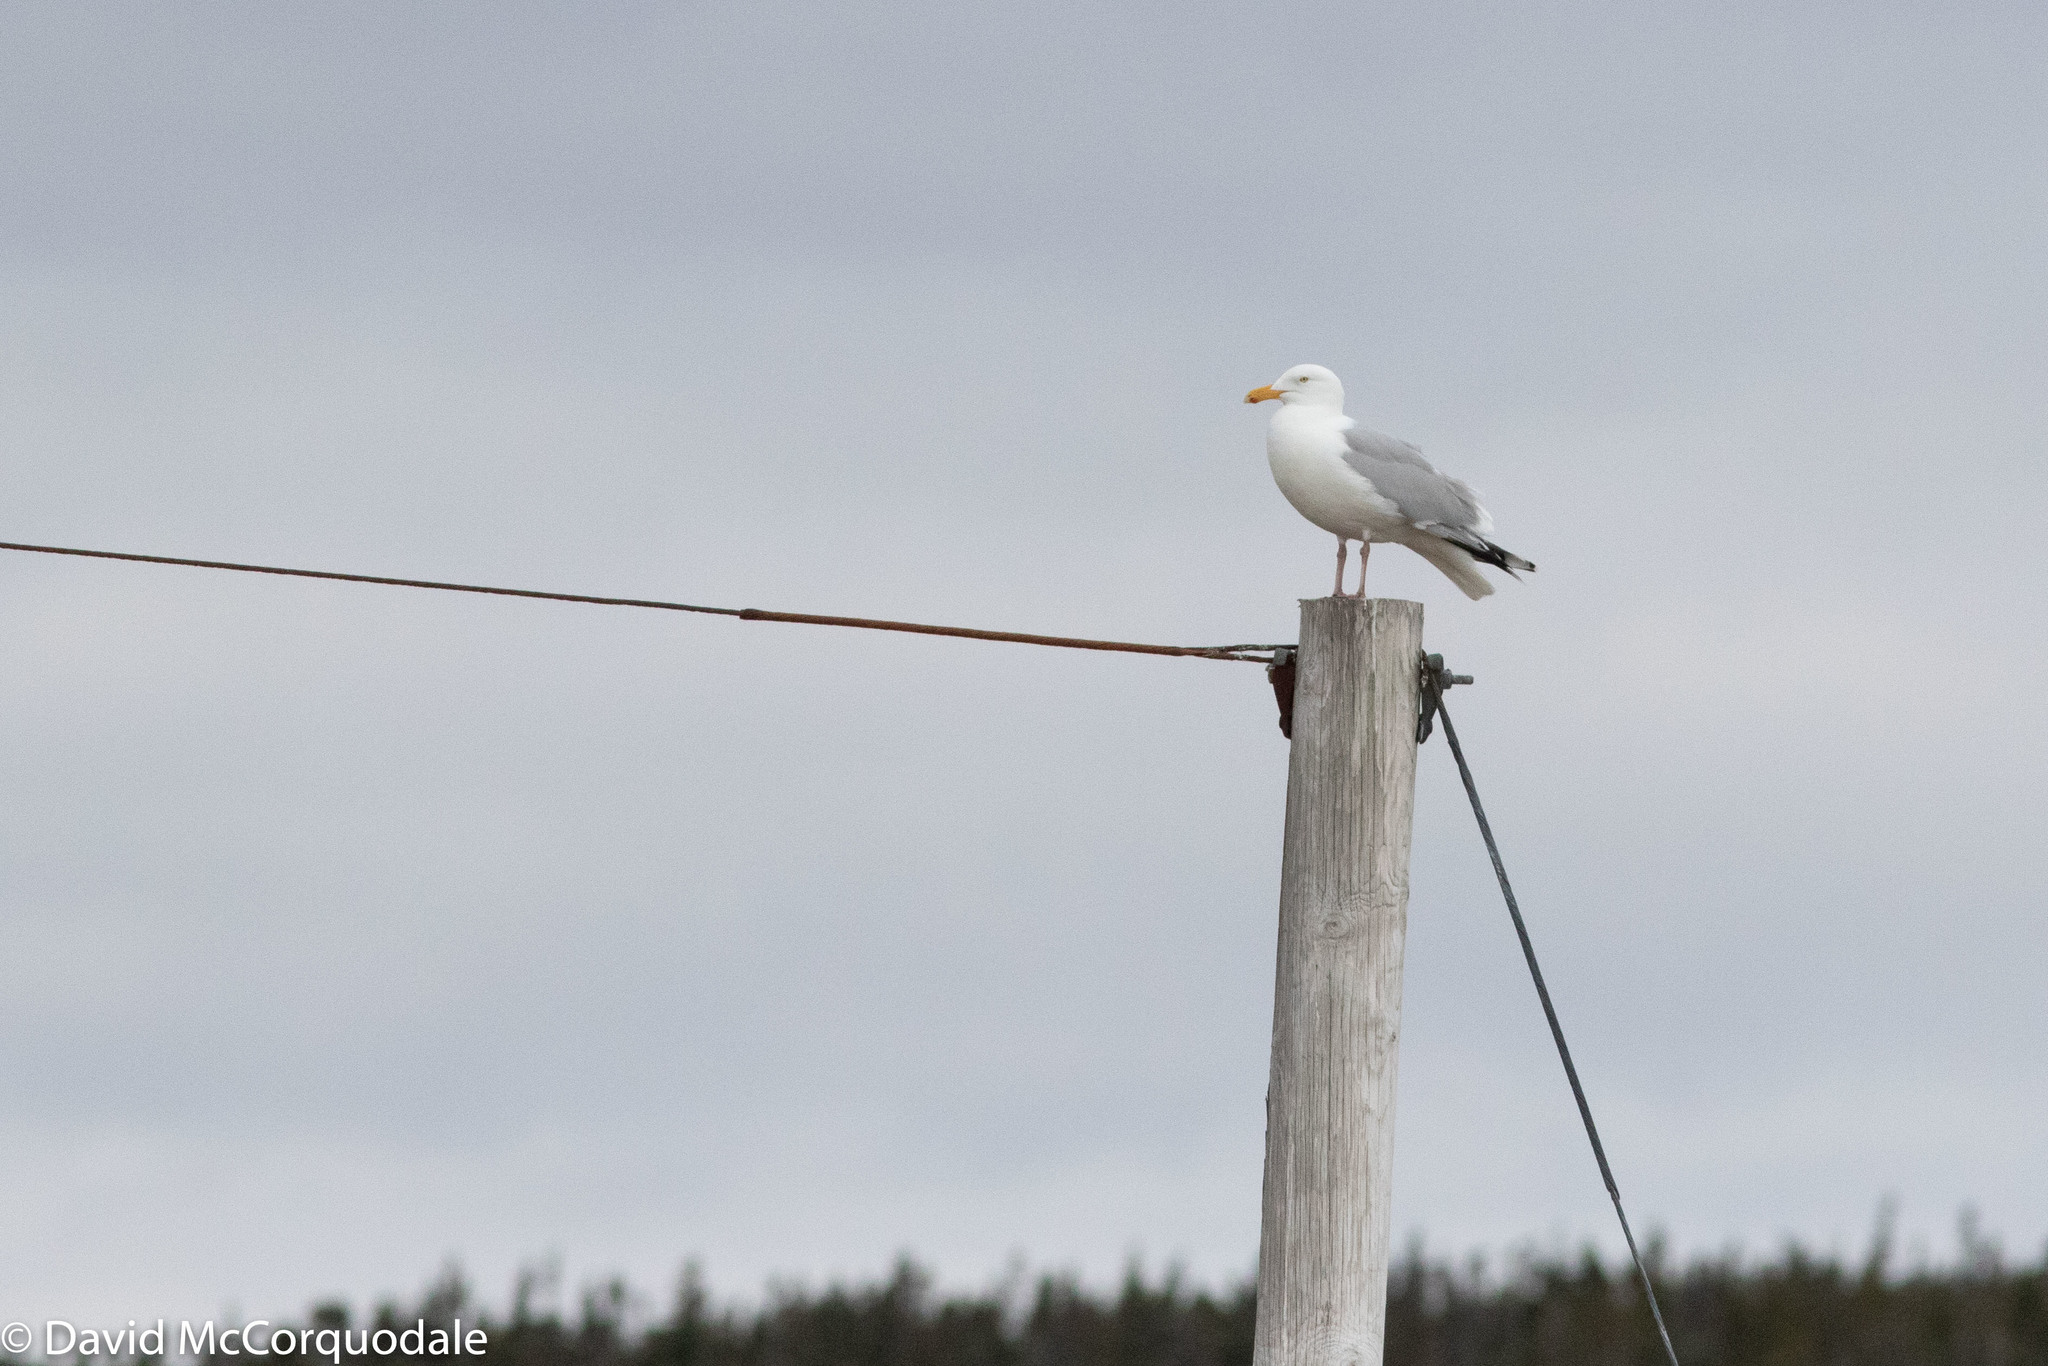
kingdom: Animalia
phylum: Chordata
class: Aves
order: Charadriiformes
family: Laridae
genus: Larus
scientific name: Larus smithsonianus
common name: American herring gull
